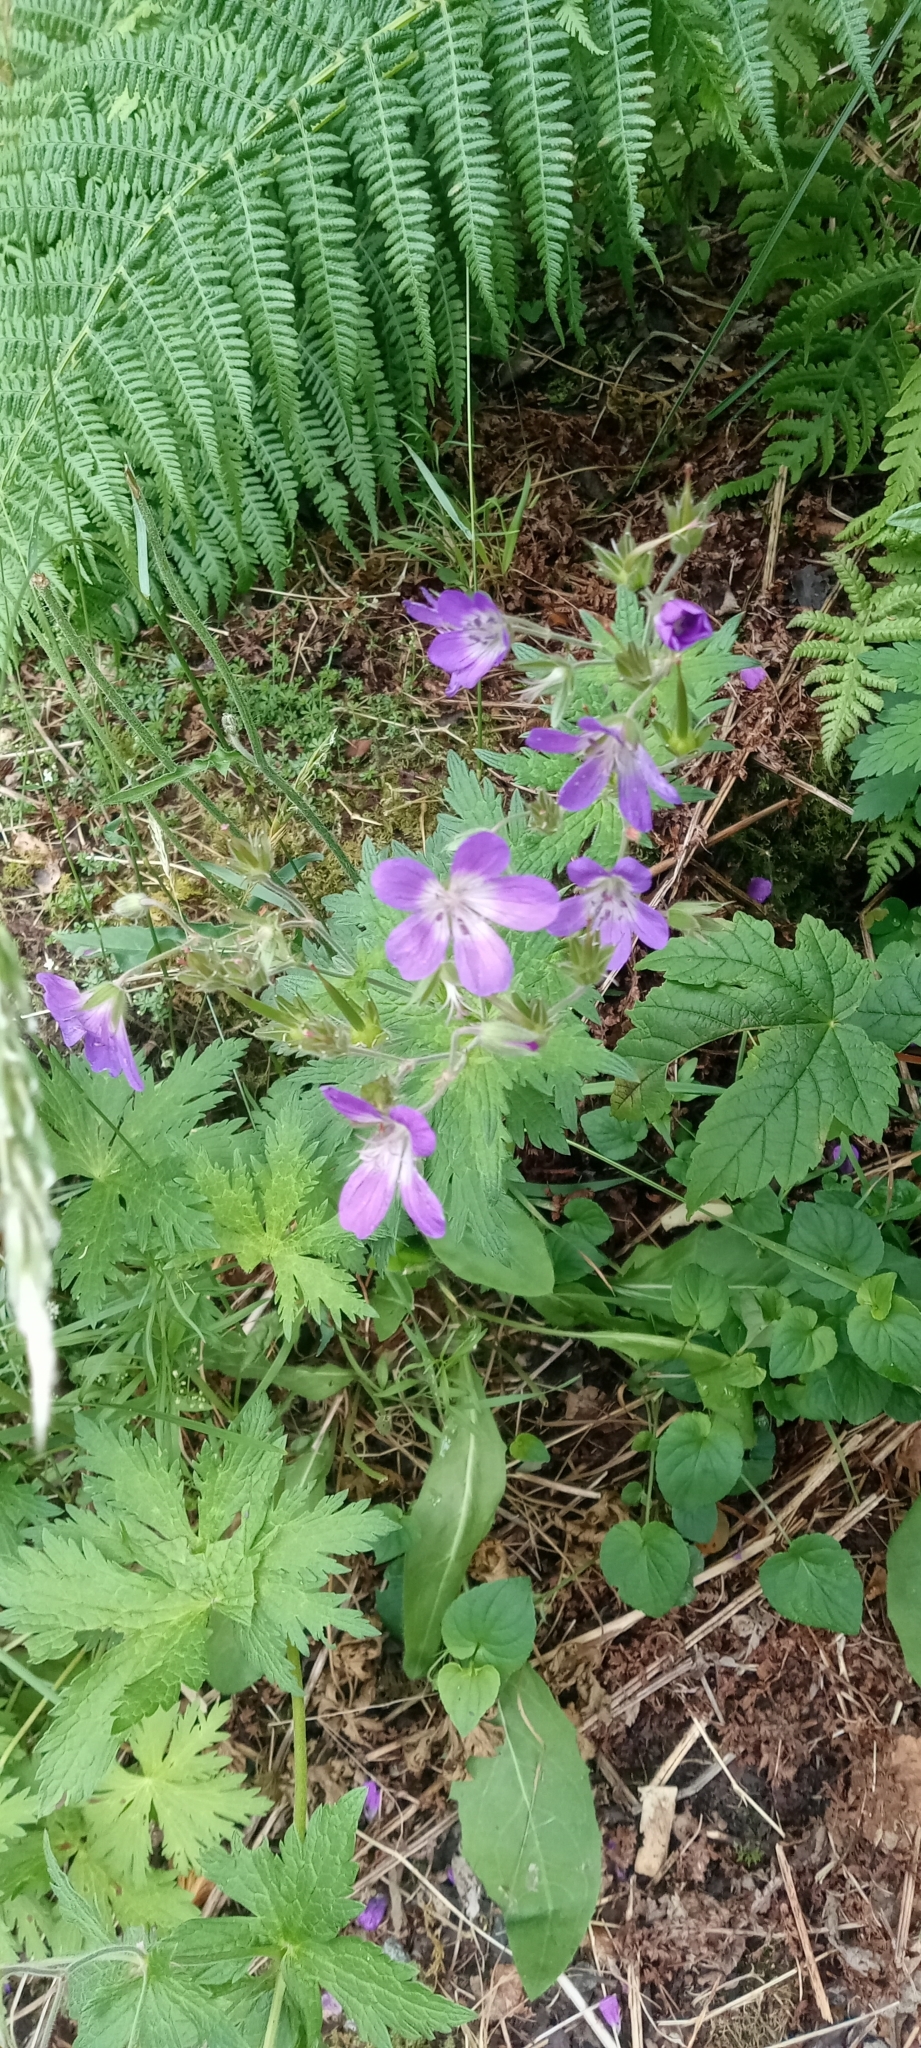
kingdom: Plantae
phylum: Tracheophyta
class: Magnoliopsida
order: Geraniales
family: Geraniaceae
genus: Geranium
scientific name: Geranium sylvaticum
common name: Wood crane's-bill
